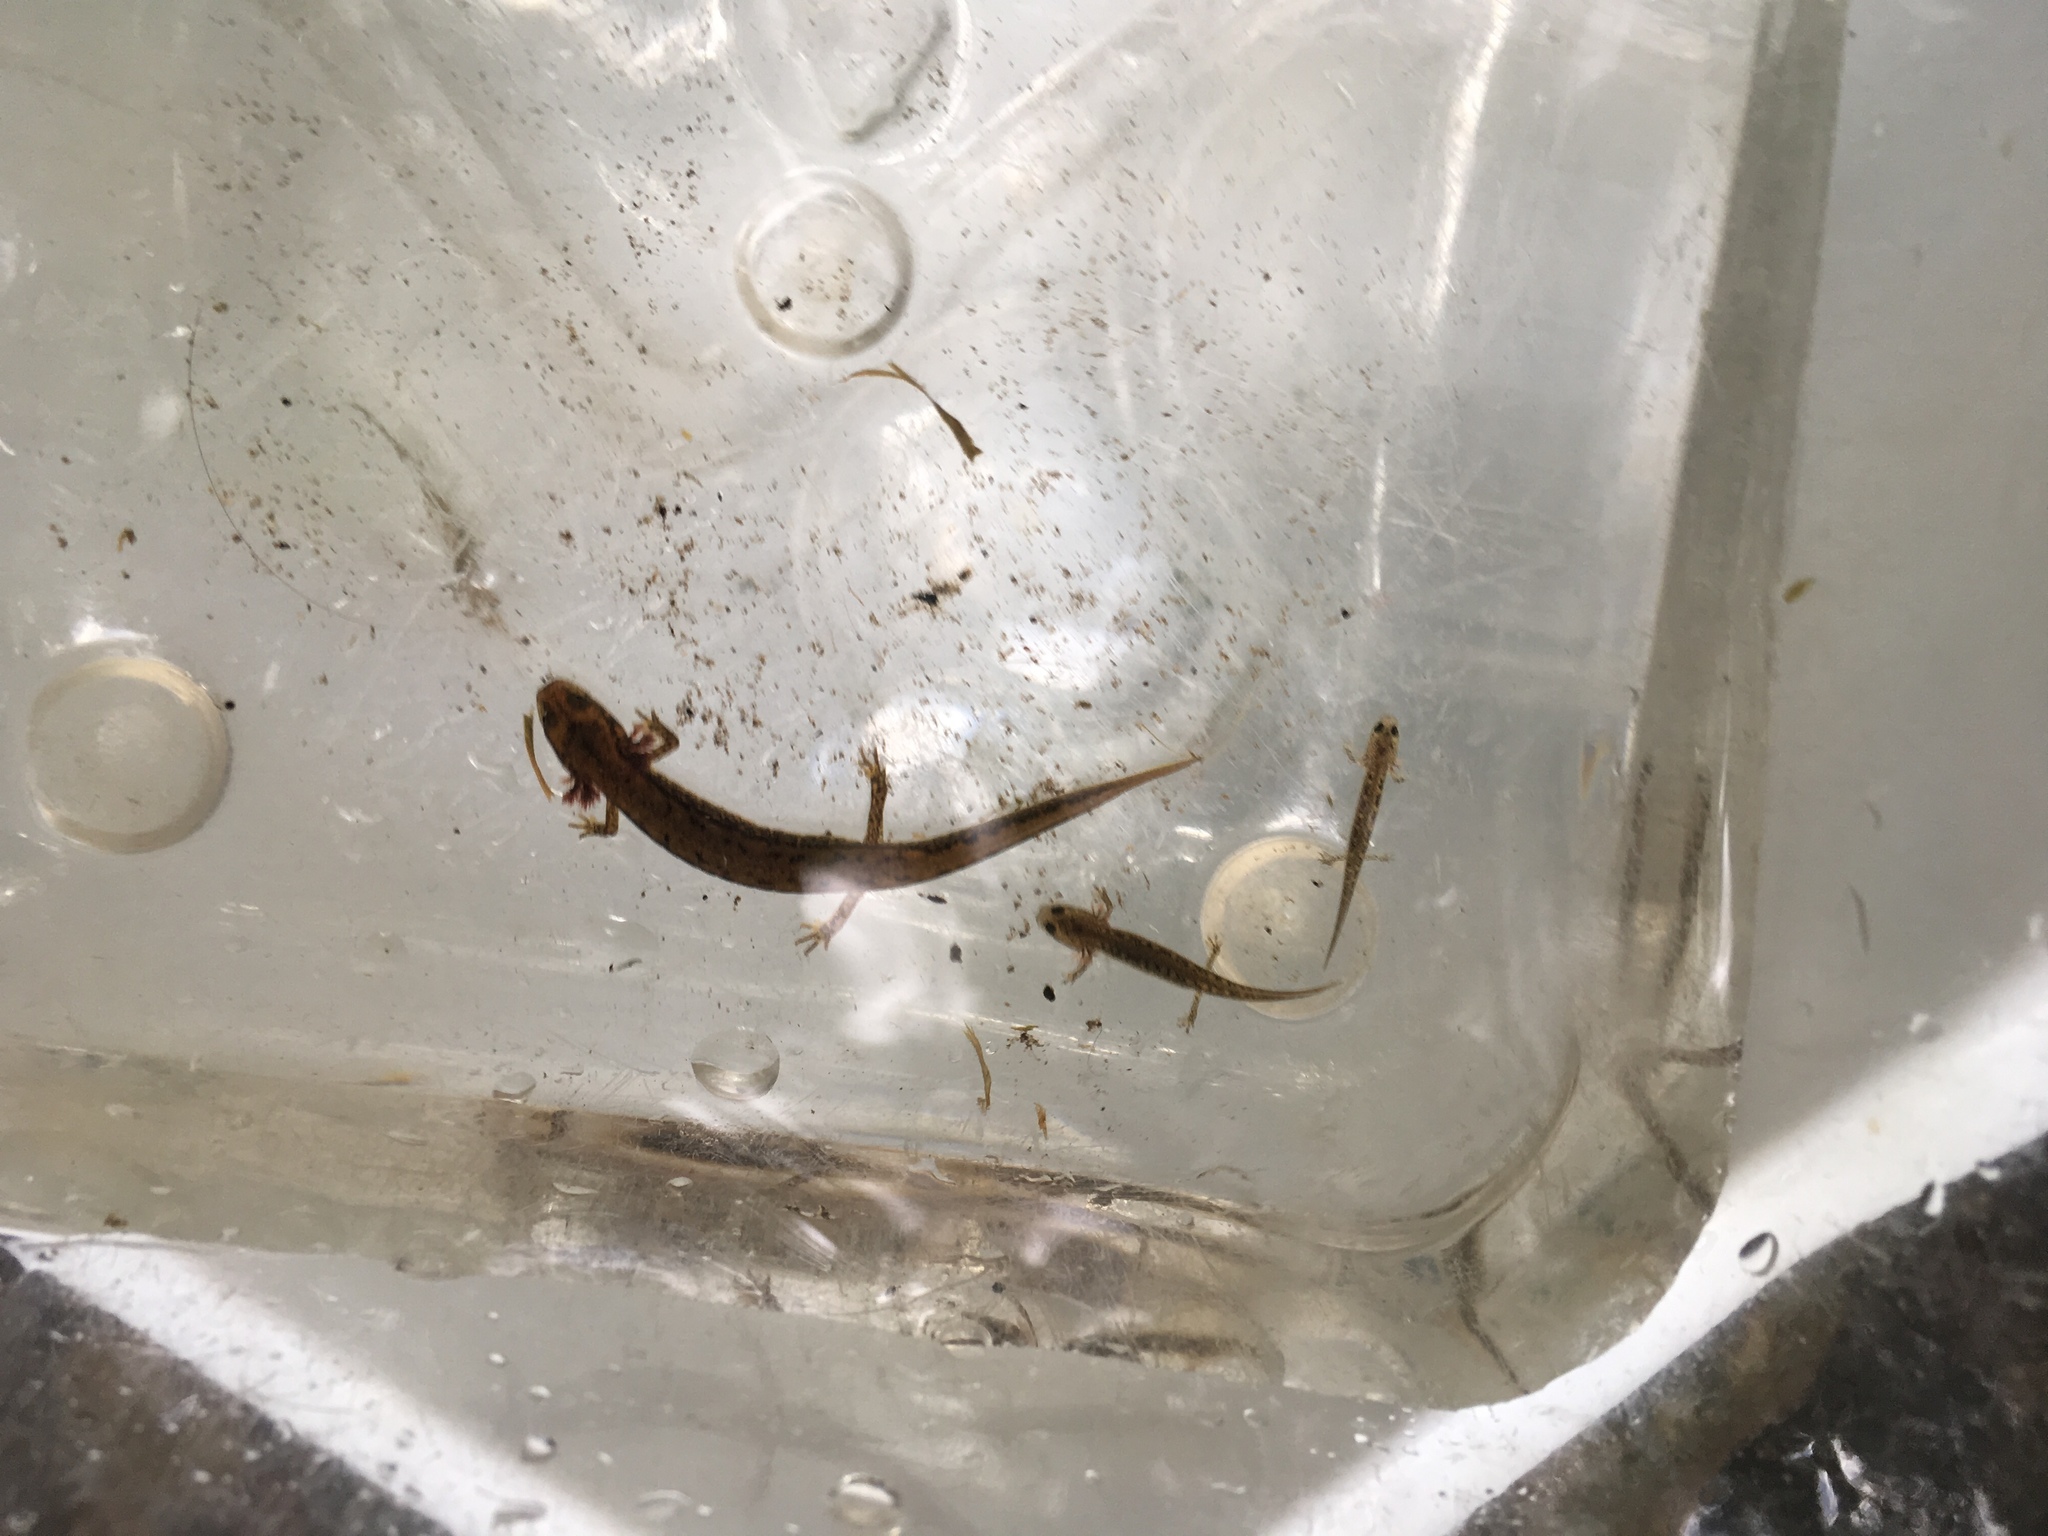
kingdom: Animalia
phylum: Chordata
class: Amphibia
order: Caudata
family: Plethodontidae
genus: Eurycea
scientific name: Eurycea bislineata
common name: Northern two-lined salamander
